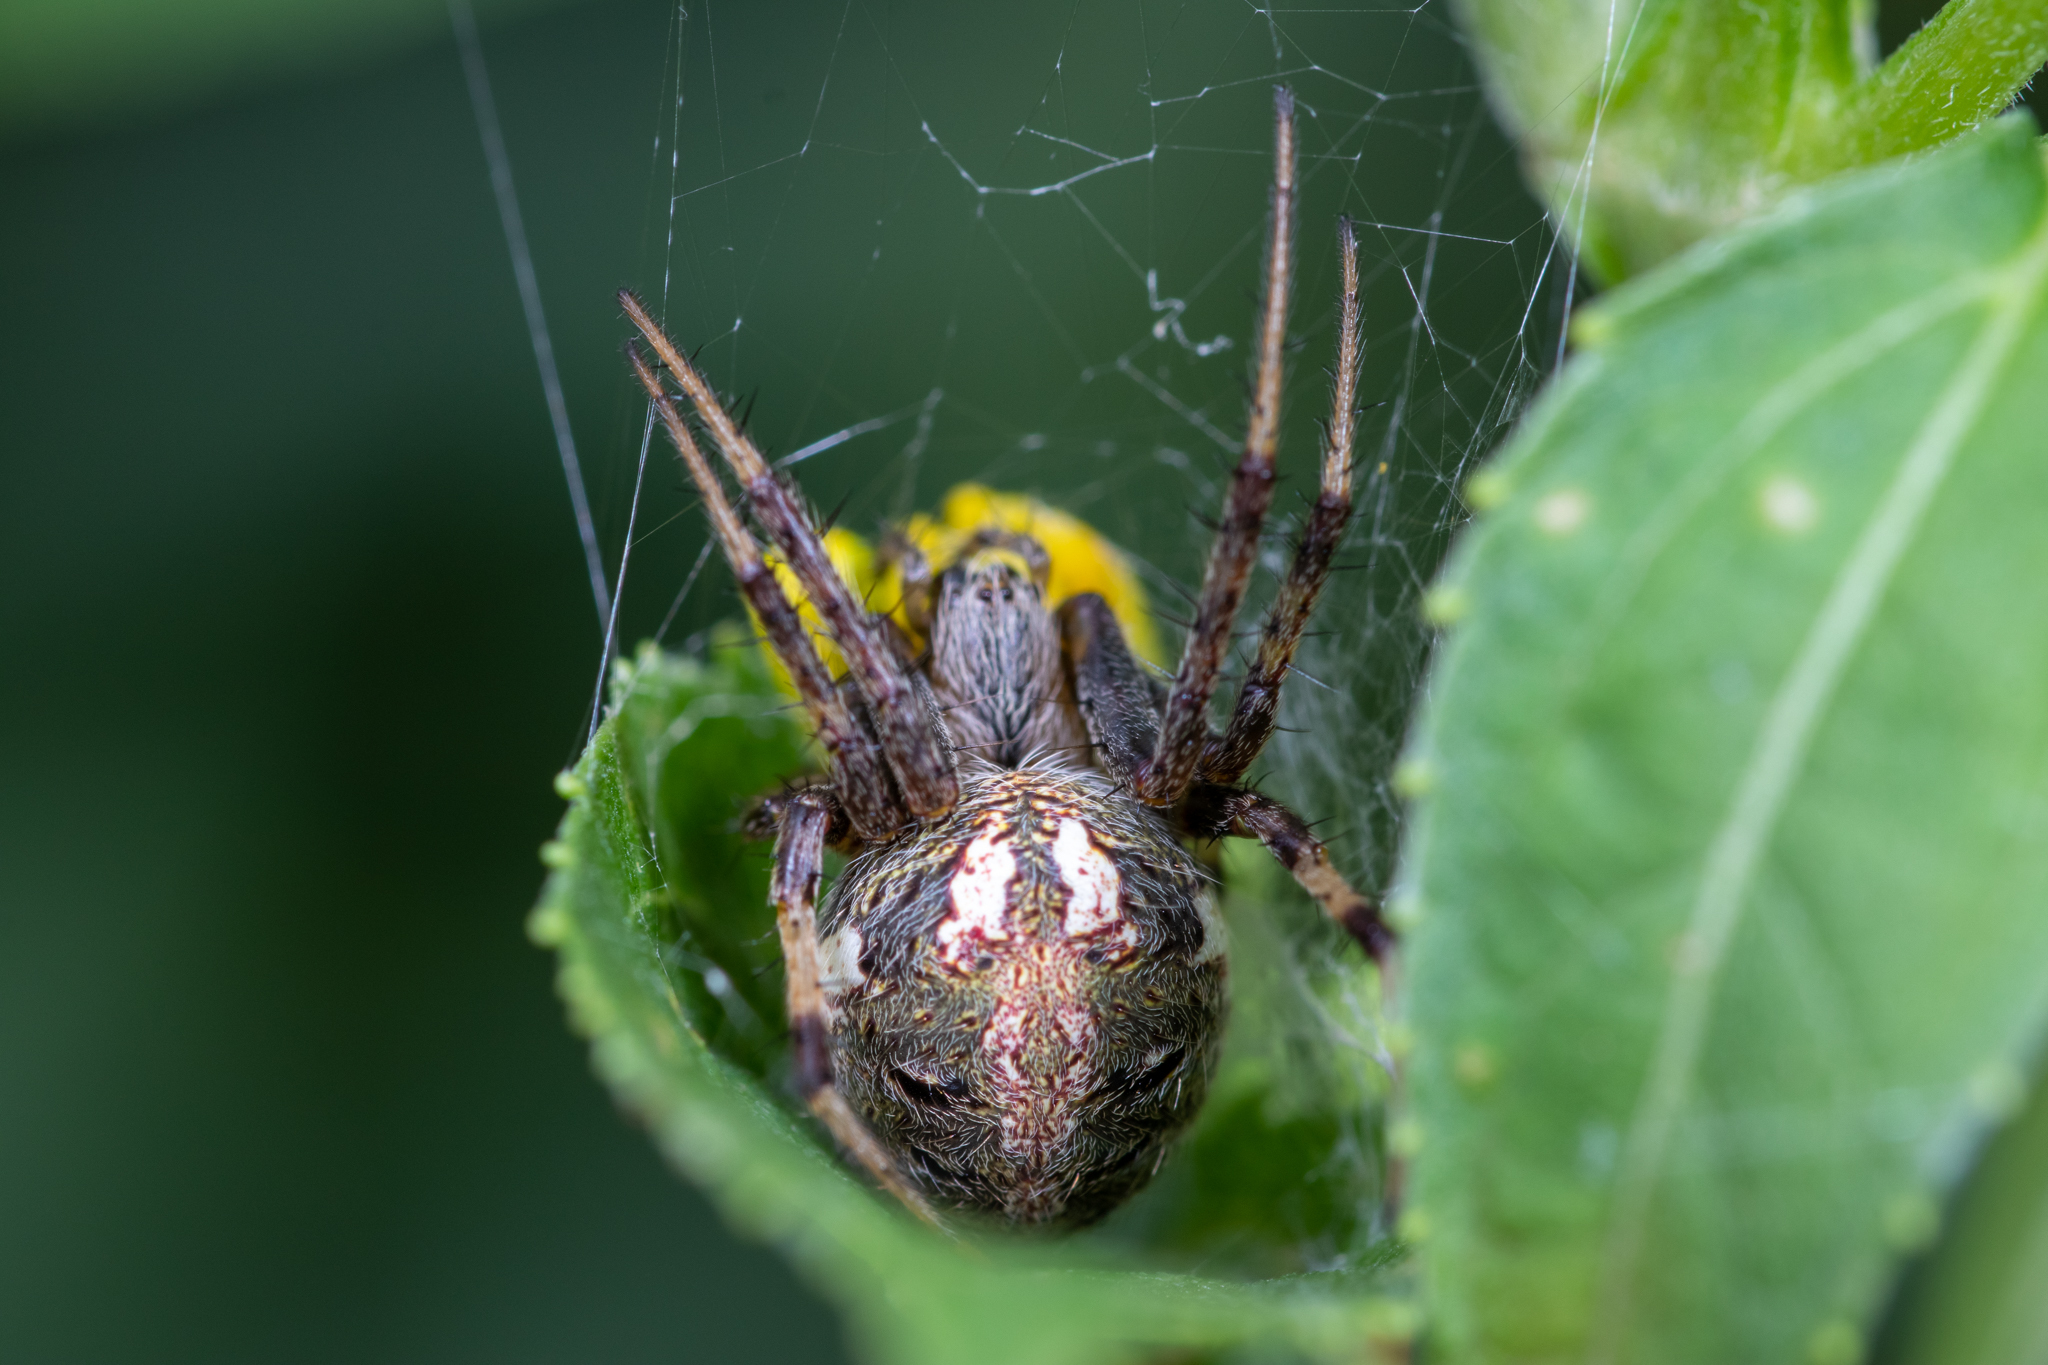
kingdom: Animalia
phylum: Arthropoda
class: Arachnida
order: Araneae
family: Araneidae
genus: Neoscona
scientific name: Neoscona arabesca
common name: Orb weavers
